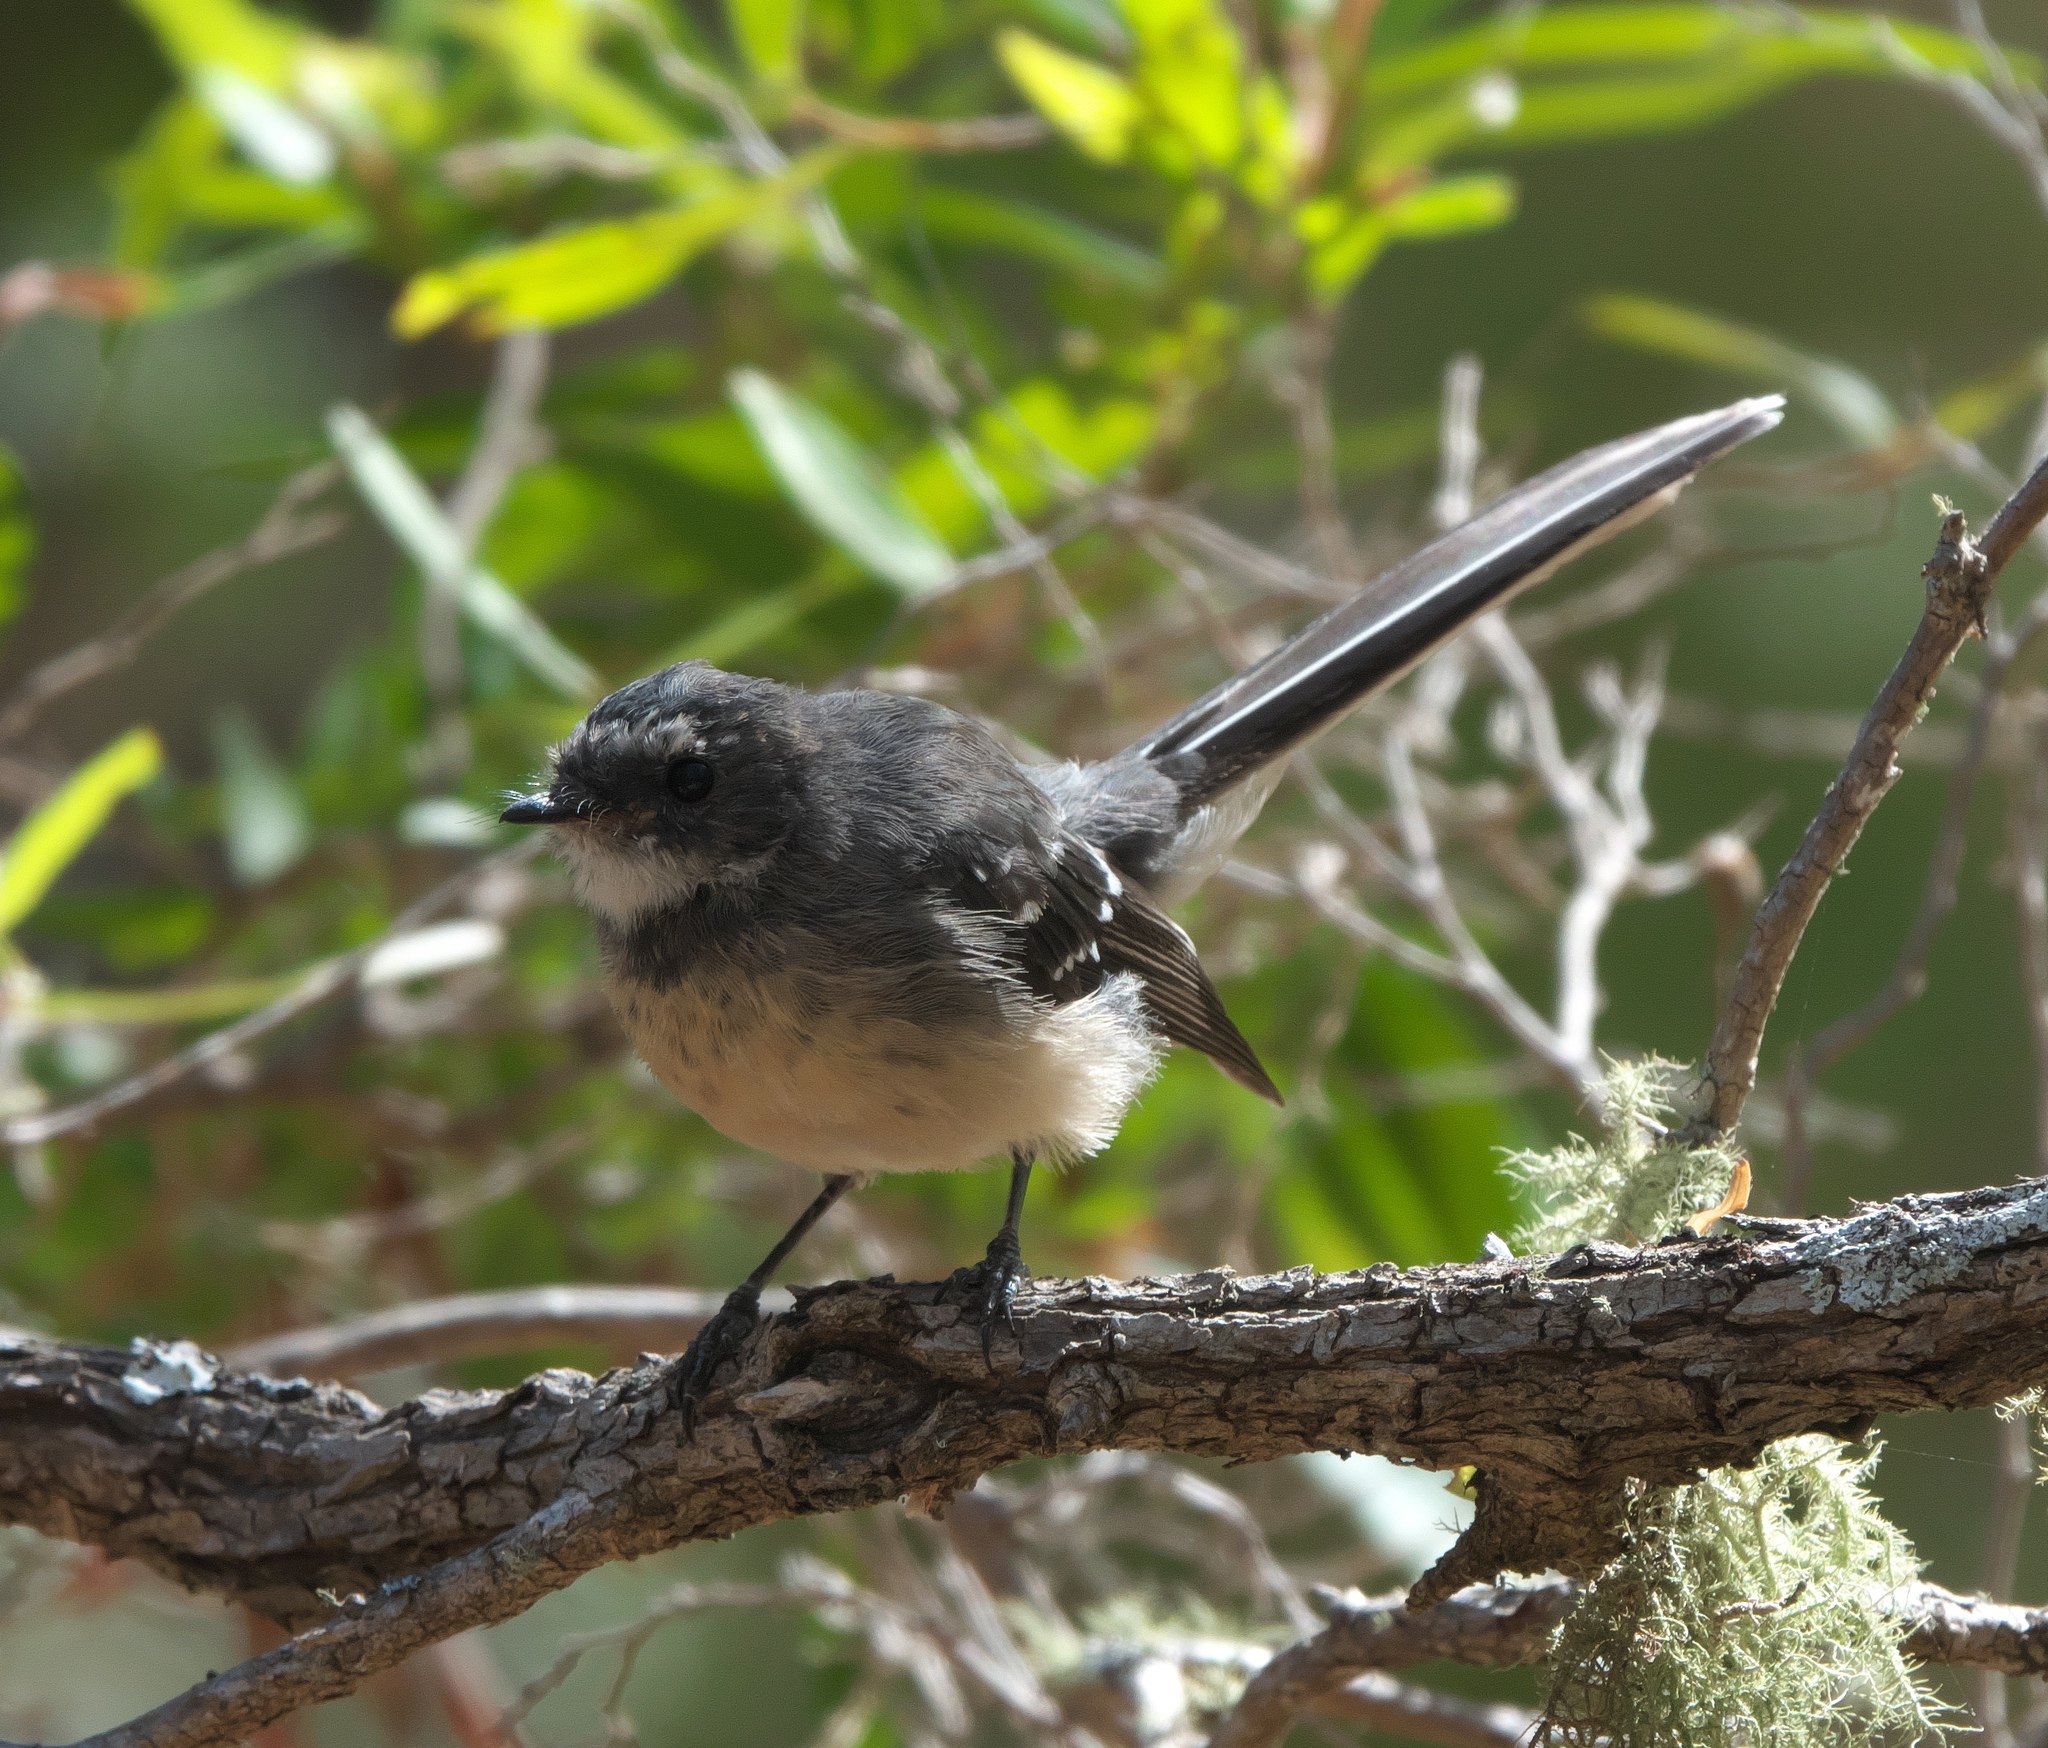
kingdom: Animalia
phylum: Chordata
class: Aves
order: Passeriformes
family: Rhipiduridae
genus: Rhipidura
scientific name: Rhipidura albiscapa
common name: Grey fantail
